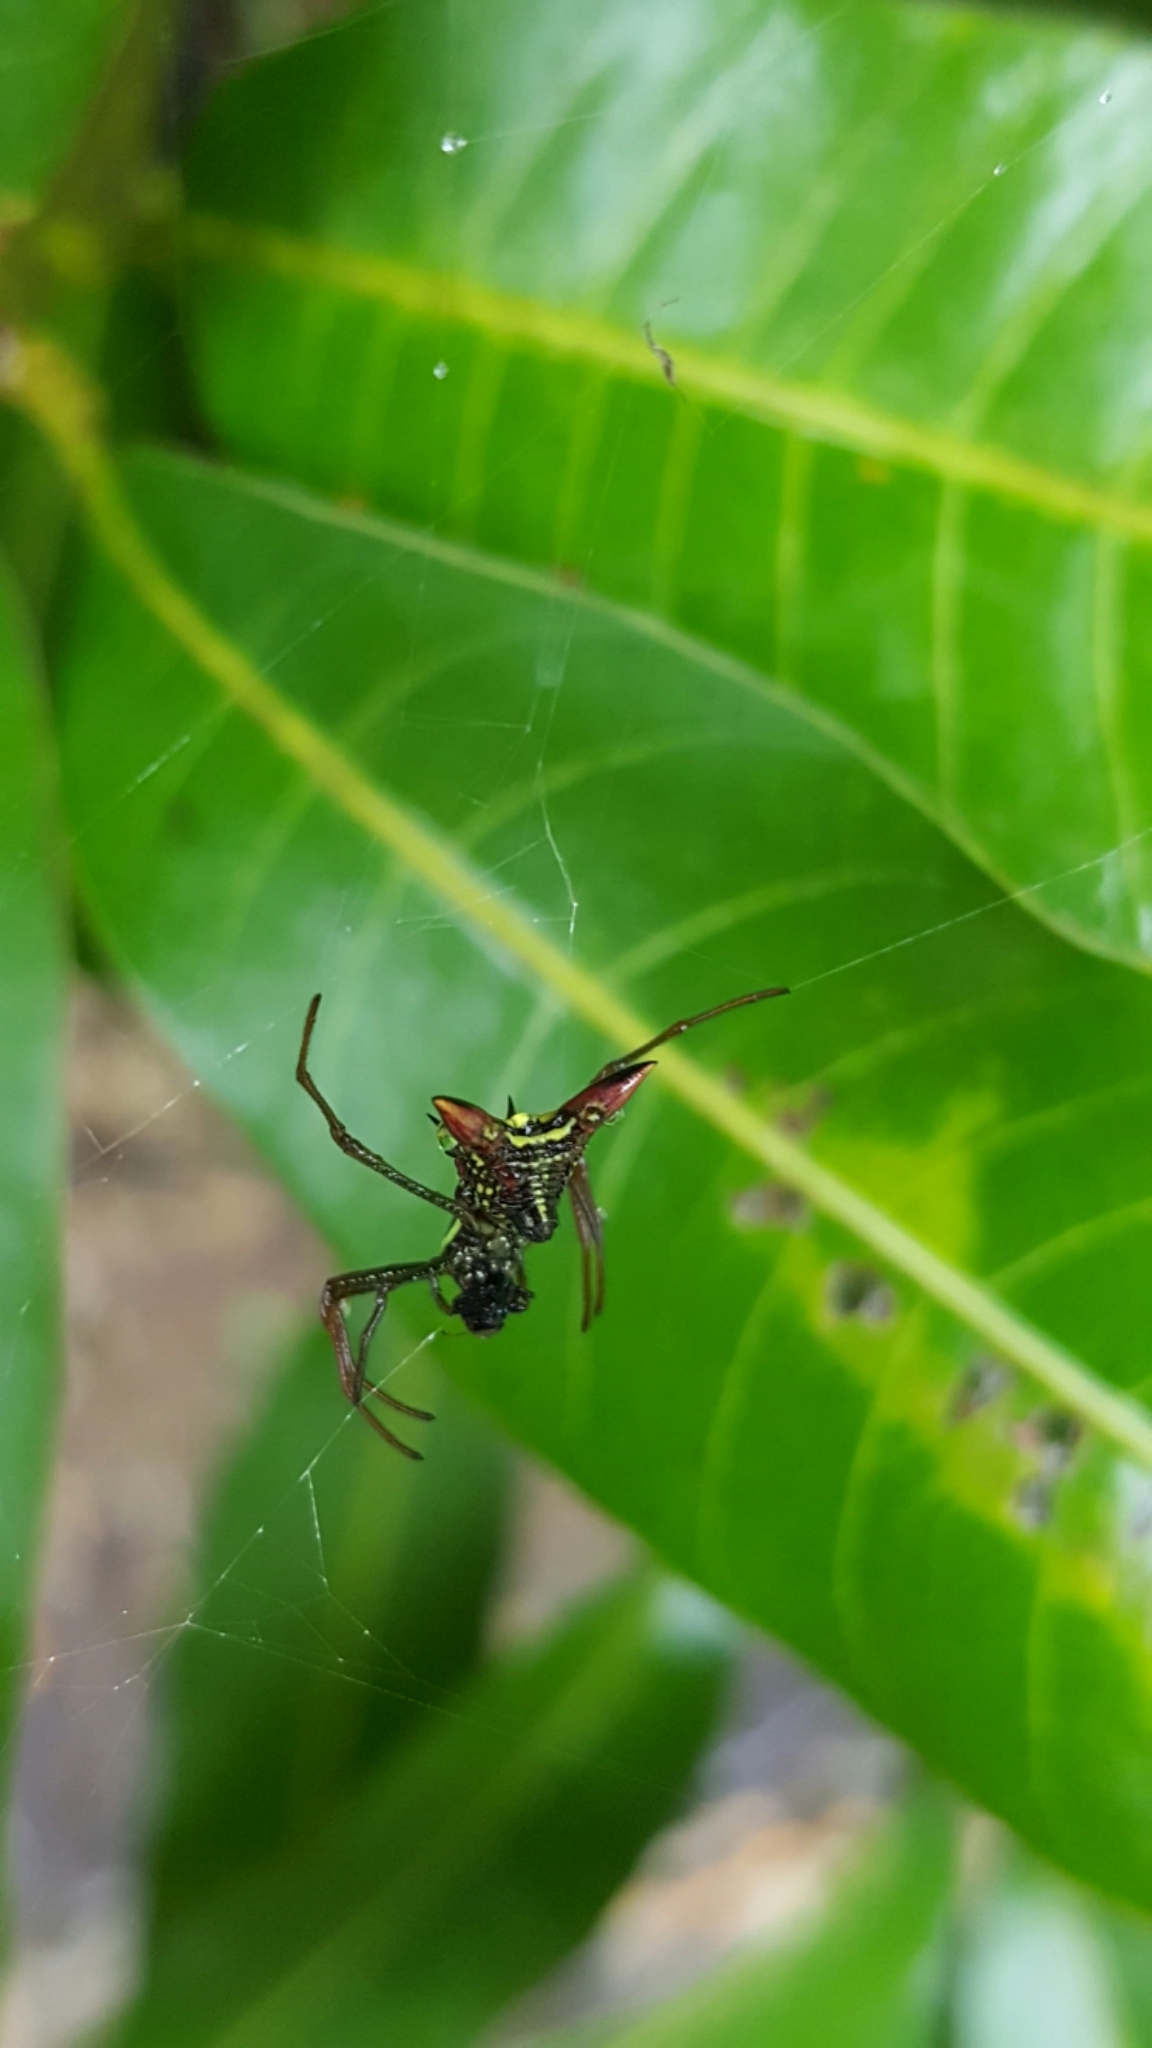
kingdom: Animalia
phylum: Arthropoda
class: Arachnida
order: Araneae
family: Araneidae
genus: Micrathena
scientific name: Micrathena
